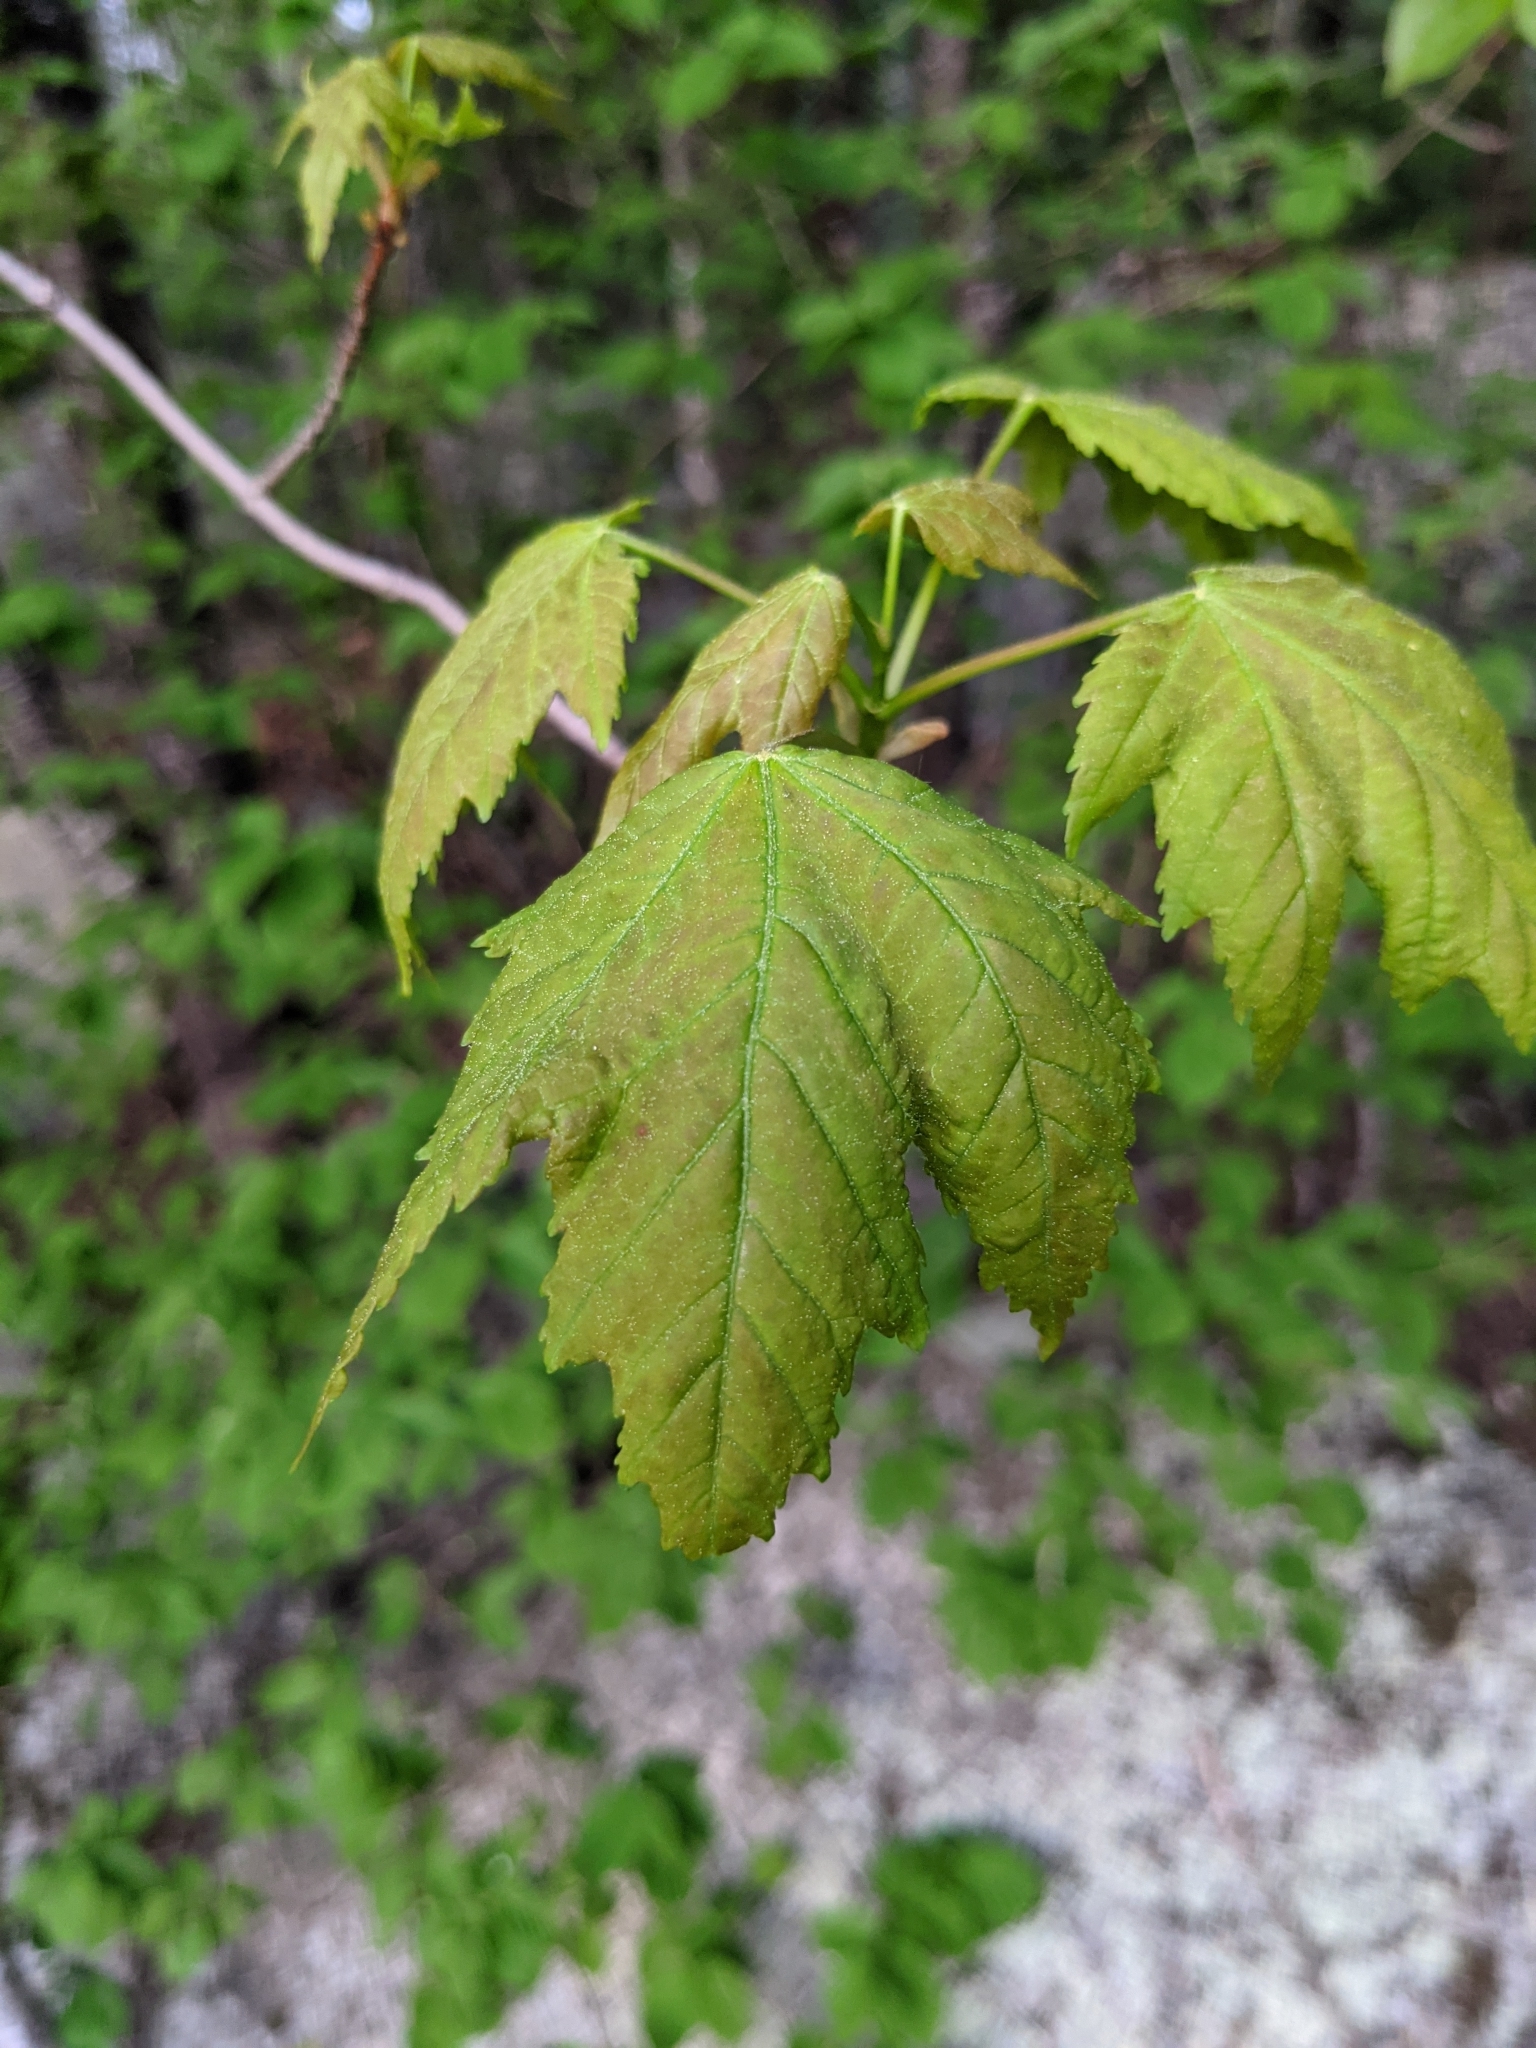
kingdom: Plantae
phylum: Tracheophyta
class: Magnoliopsida
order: Sapindales
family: Sapindaceae
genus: Acer
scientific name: Acer rubrum
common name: Red maple
